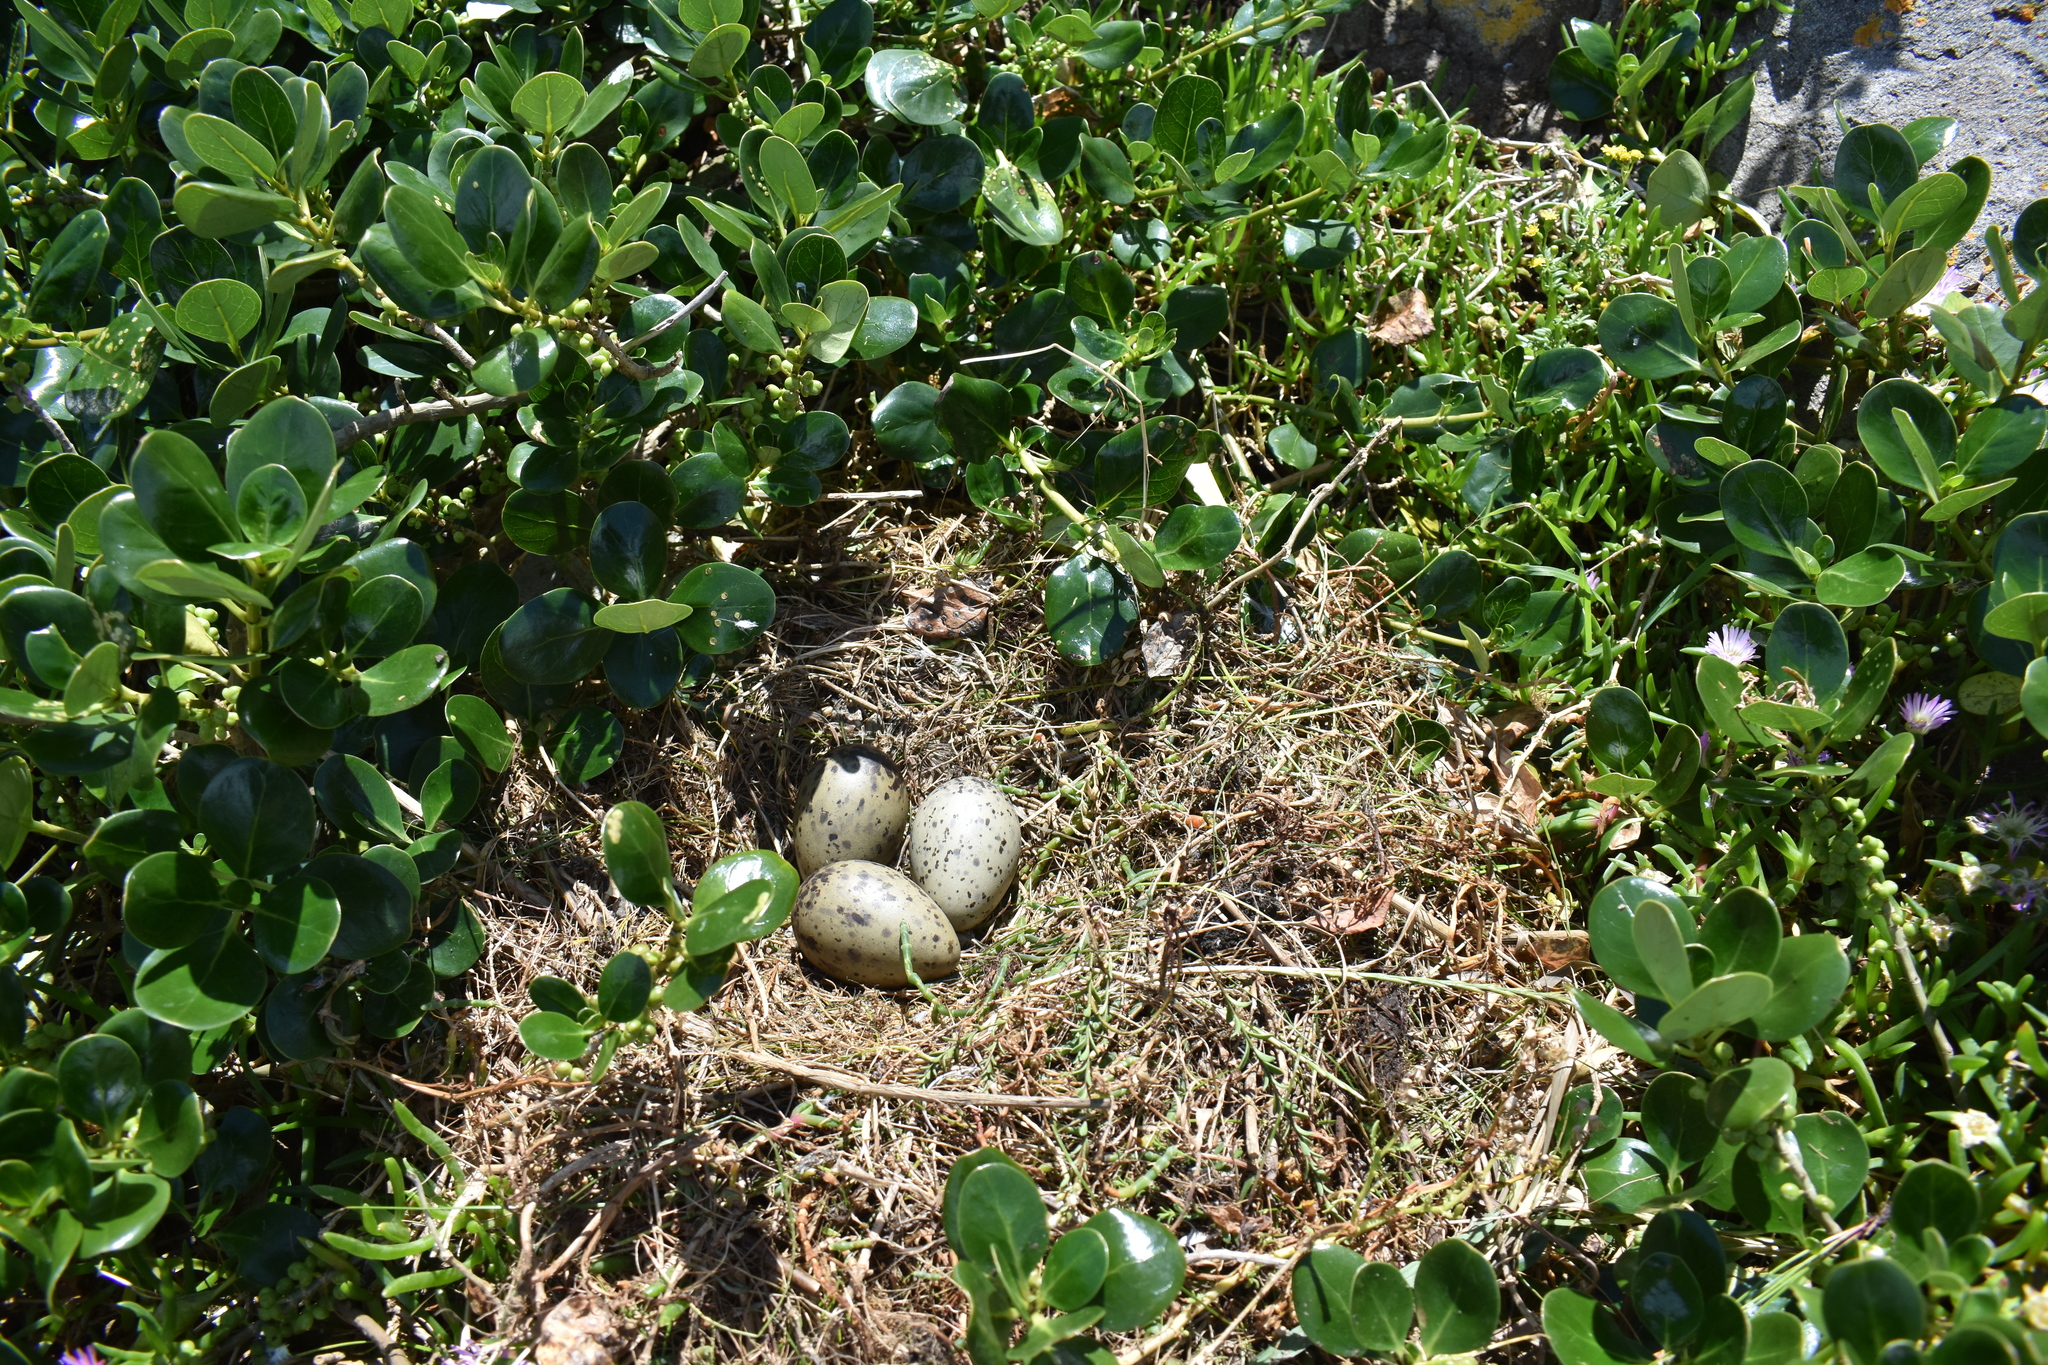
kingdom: Animalia
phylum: Chordata
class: Aves
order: Charadriiformes
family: Laridae
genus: Larus
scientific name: Larus dominicanus
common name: Kelp gull
